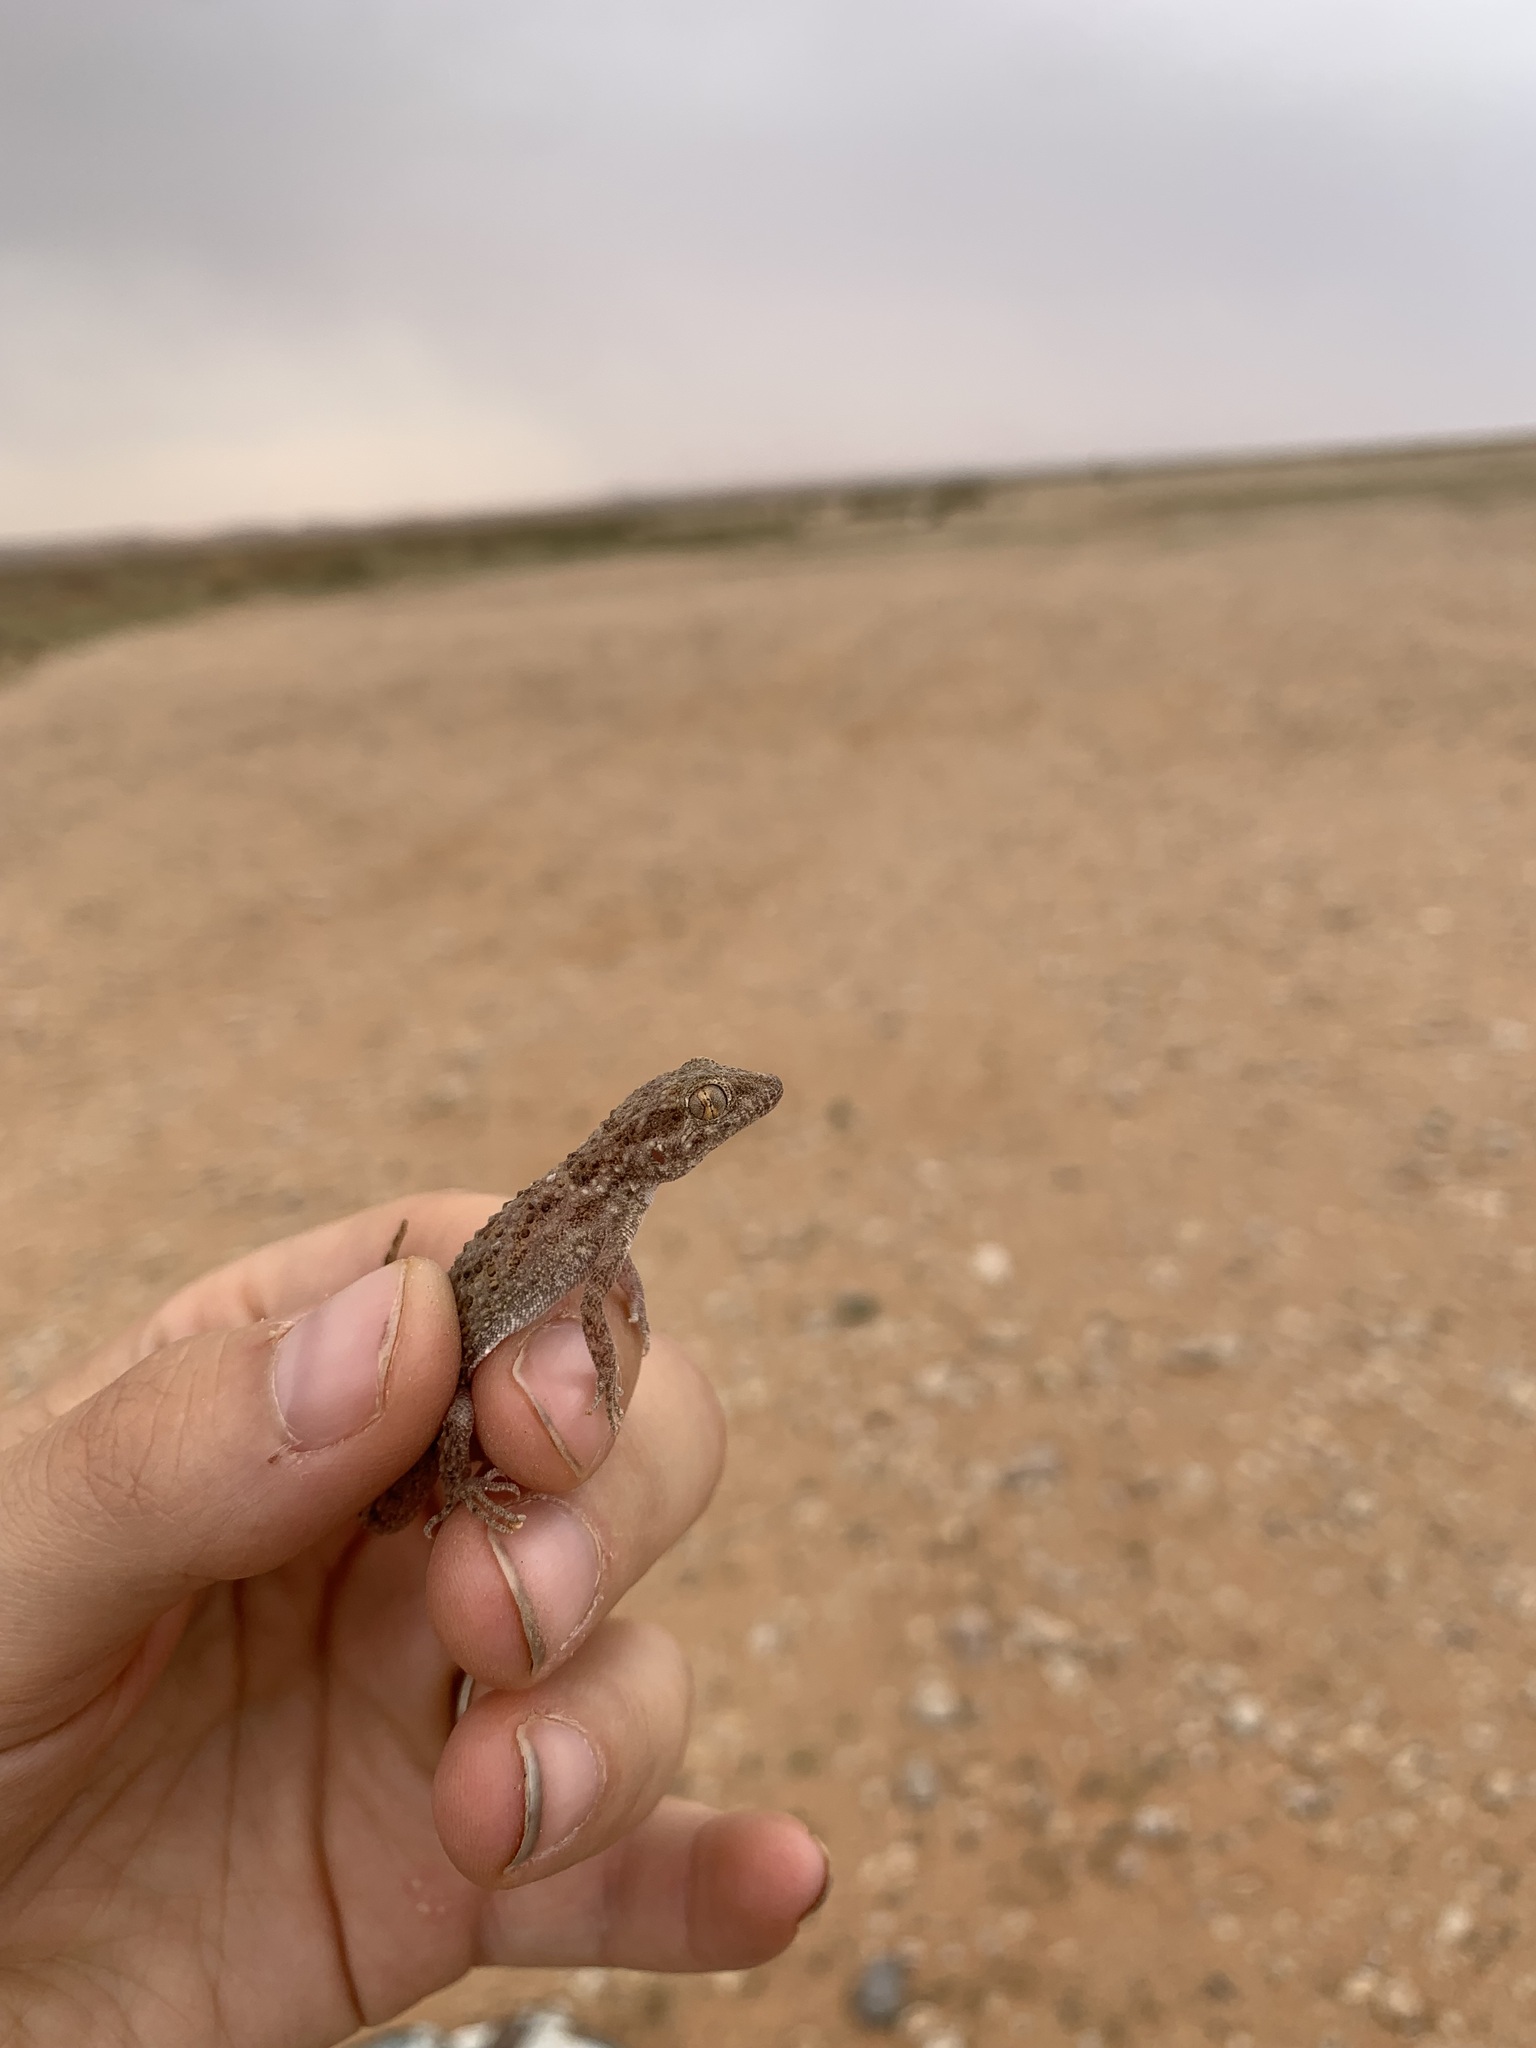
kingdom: Animalia
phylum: Chordata
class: Squamata
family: Gekkonidae
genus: Bunopus
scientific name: Bunopus tuberculatus
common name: Southern tuberculated gecko
